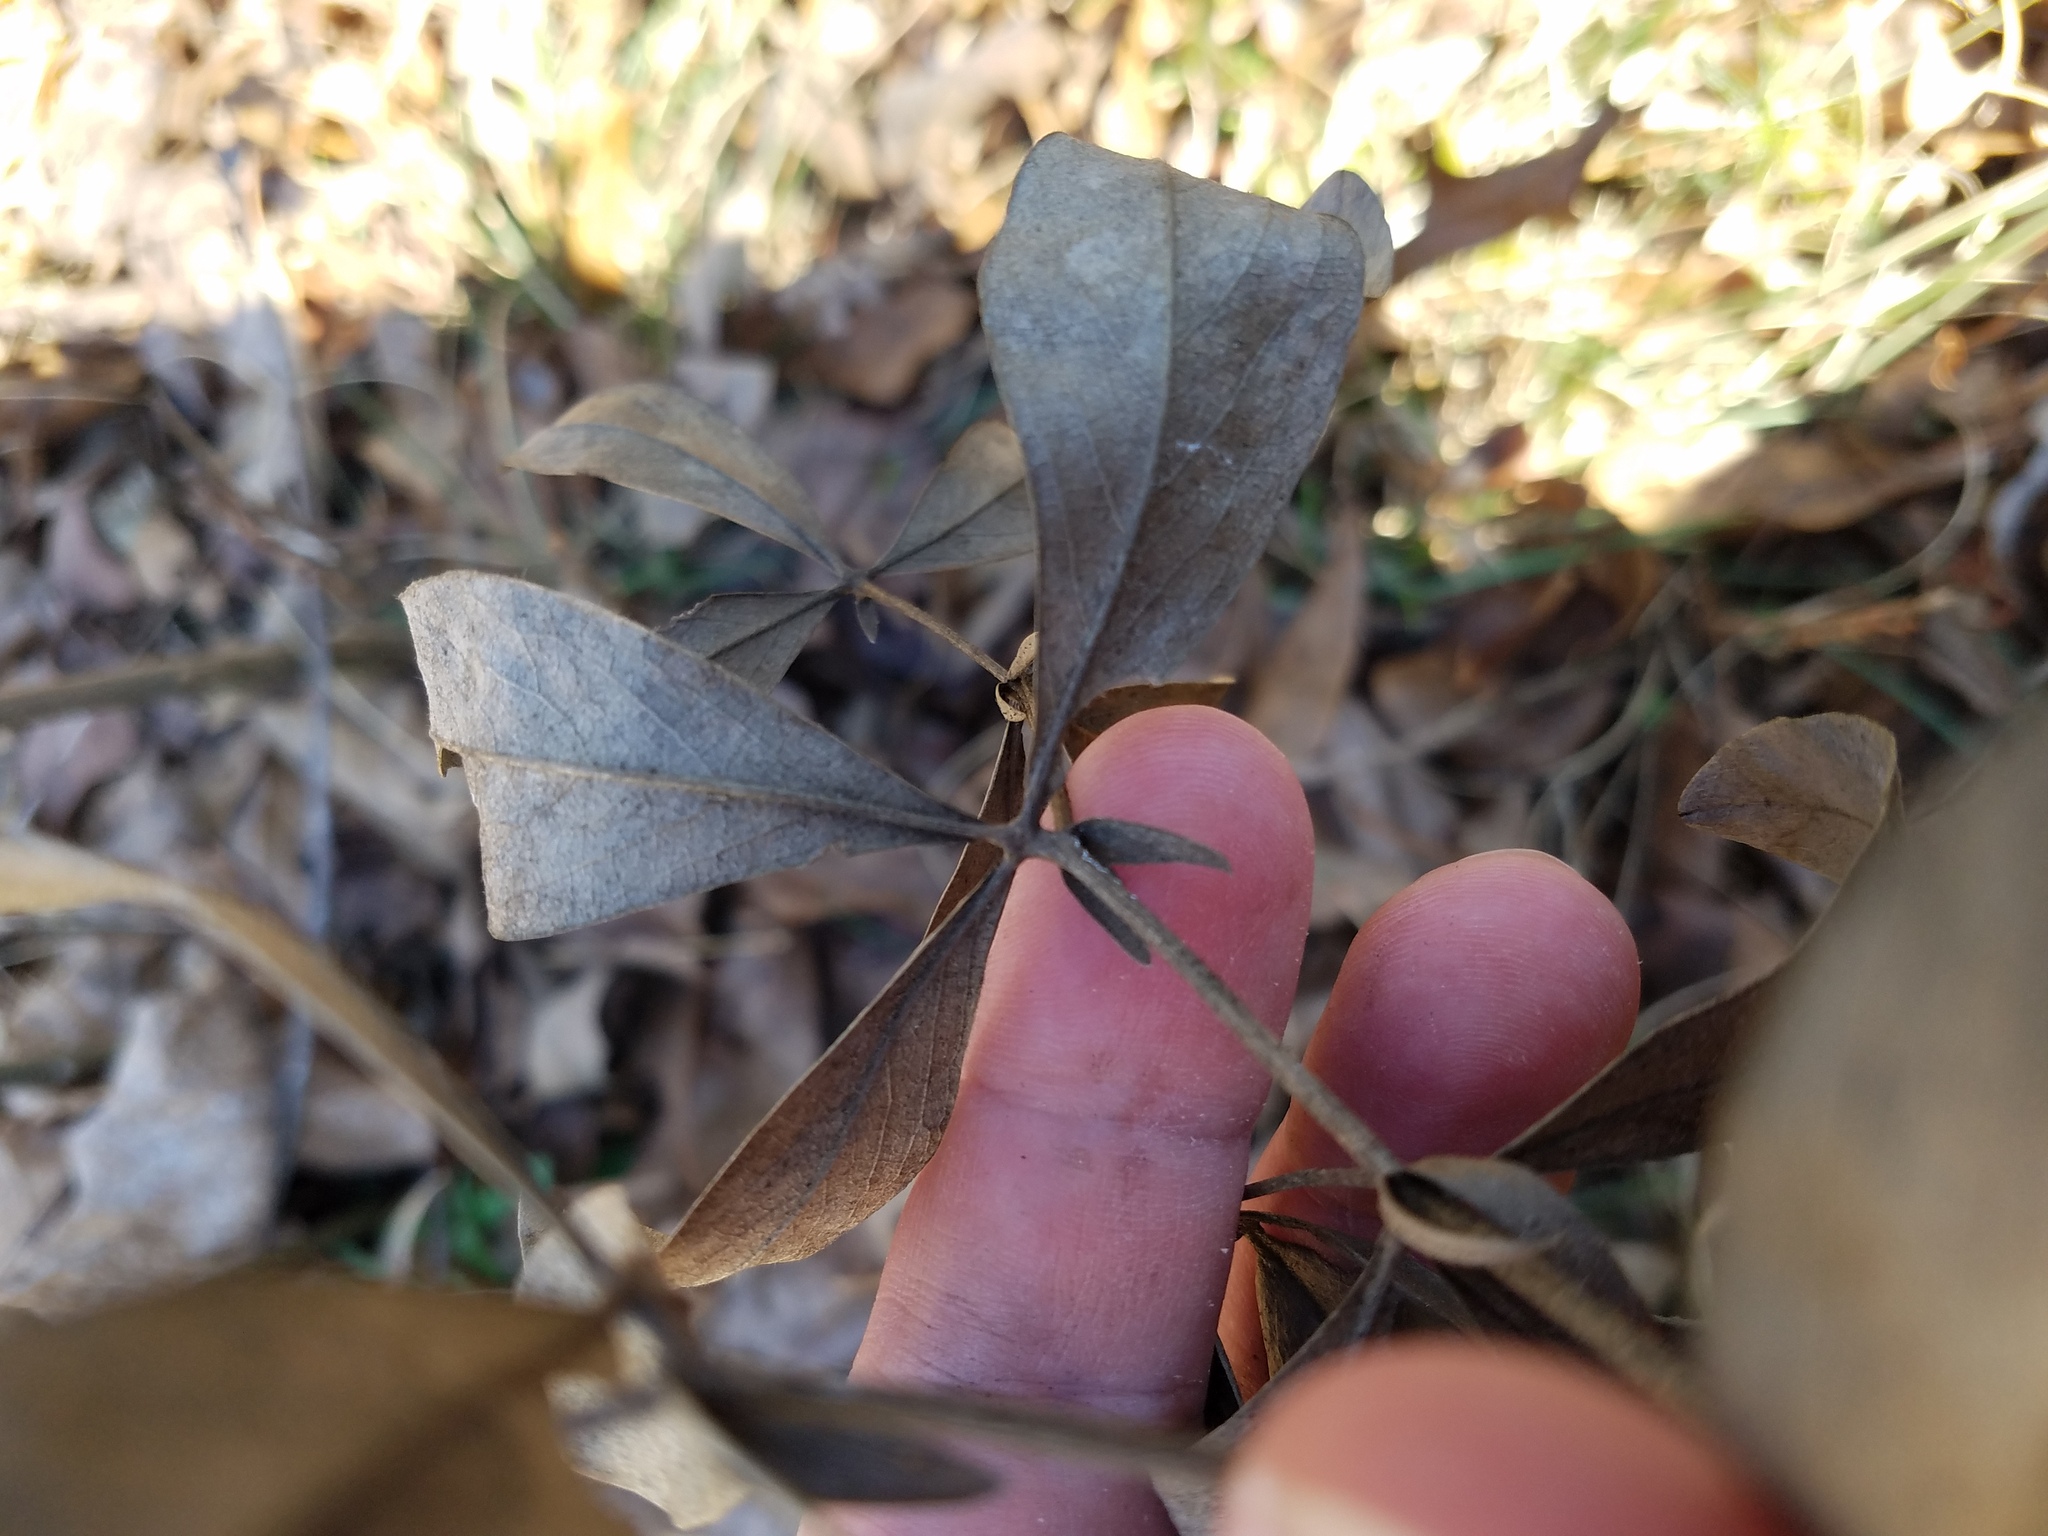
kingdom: Plantae
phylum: Tracheophyta
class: Magnoliopsida
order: Fabales
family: Fabaceae
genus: Baptisia
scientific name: Baptisia bracteata
